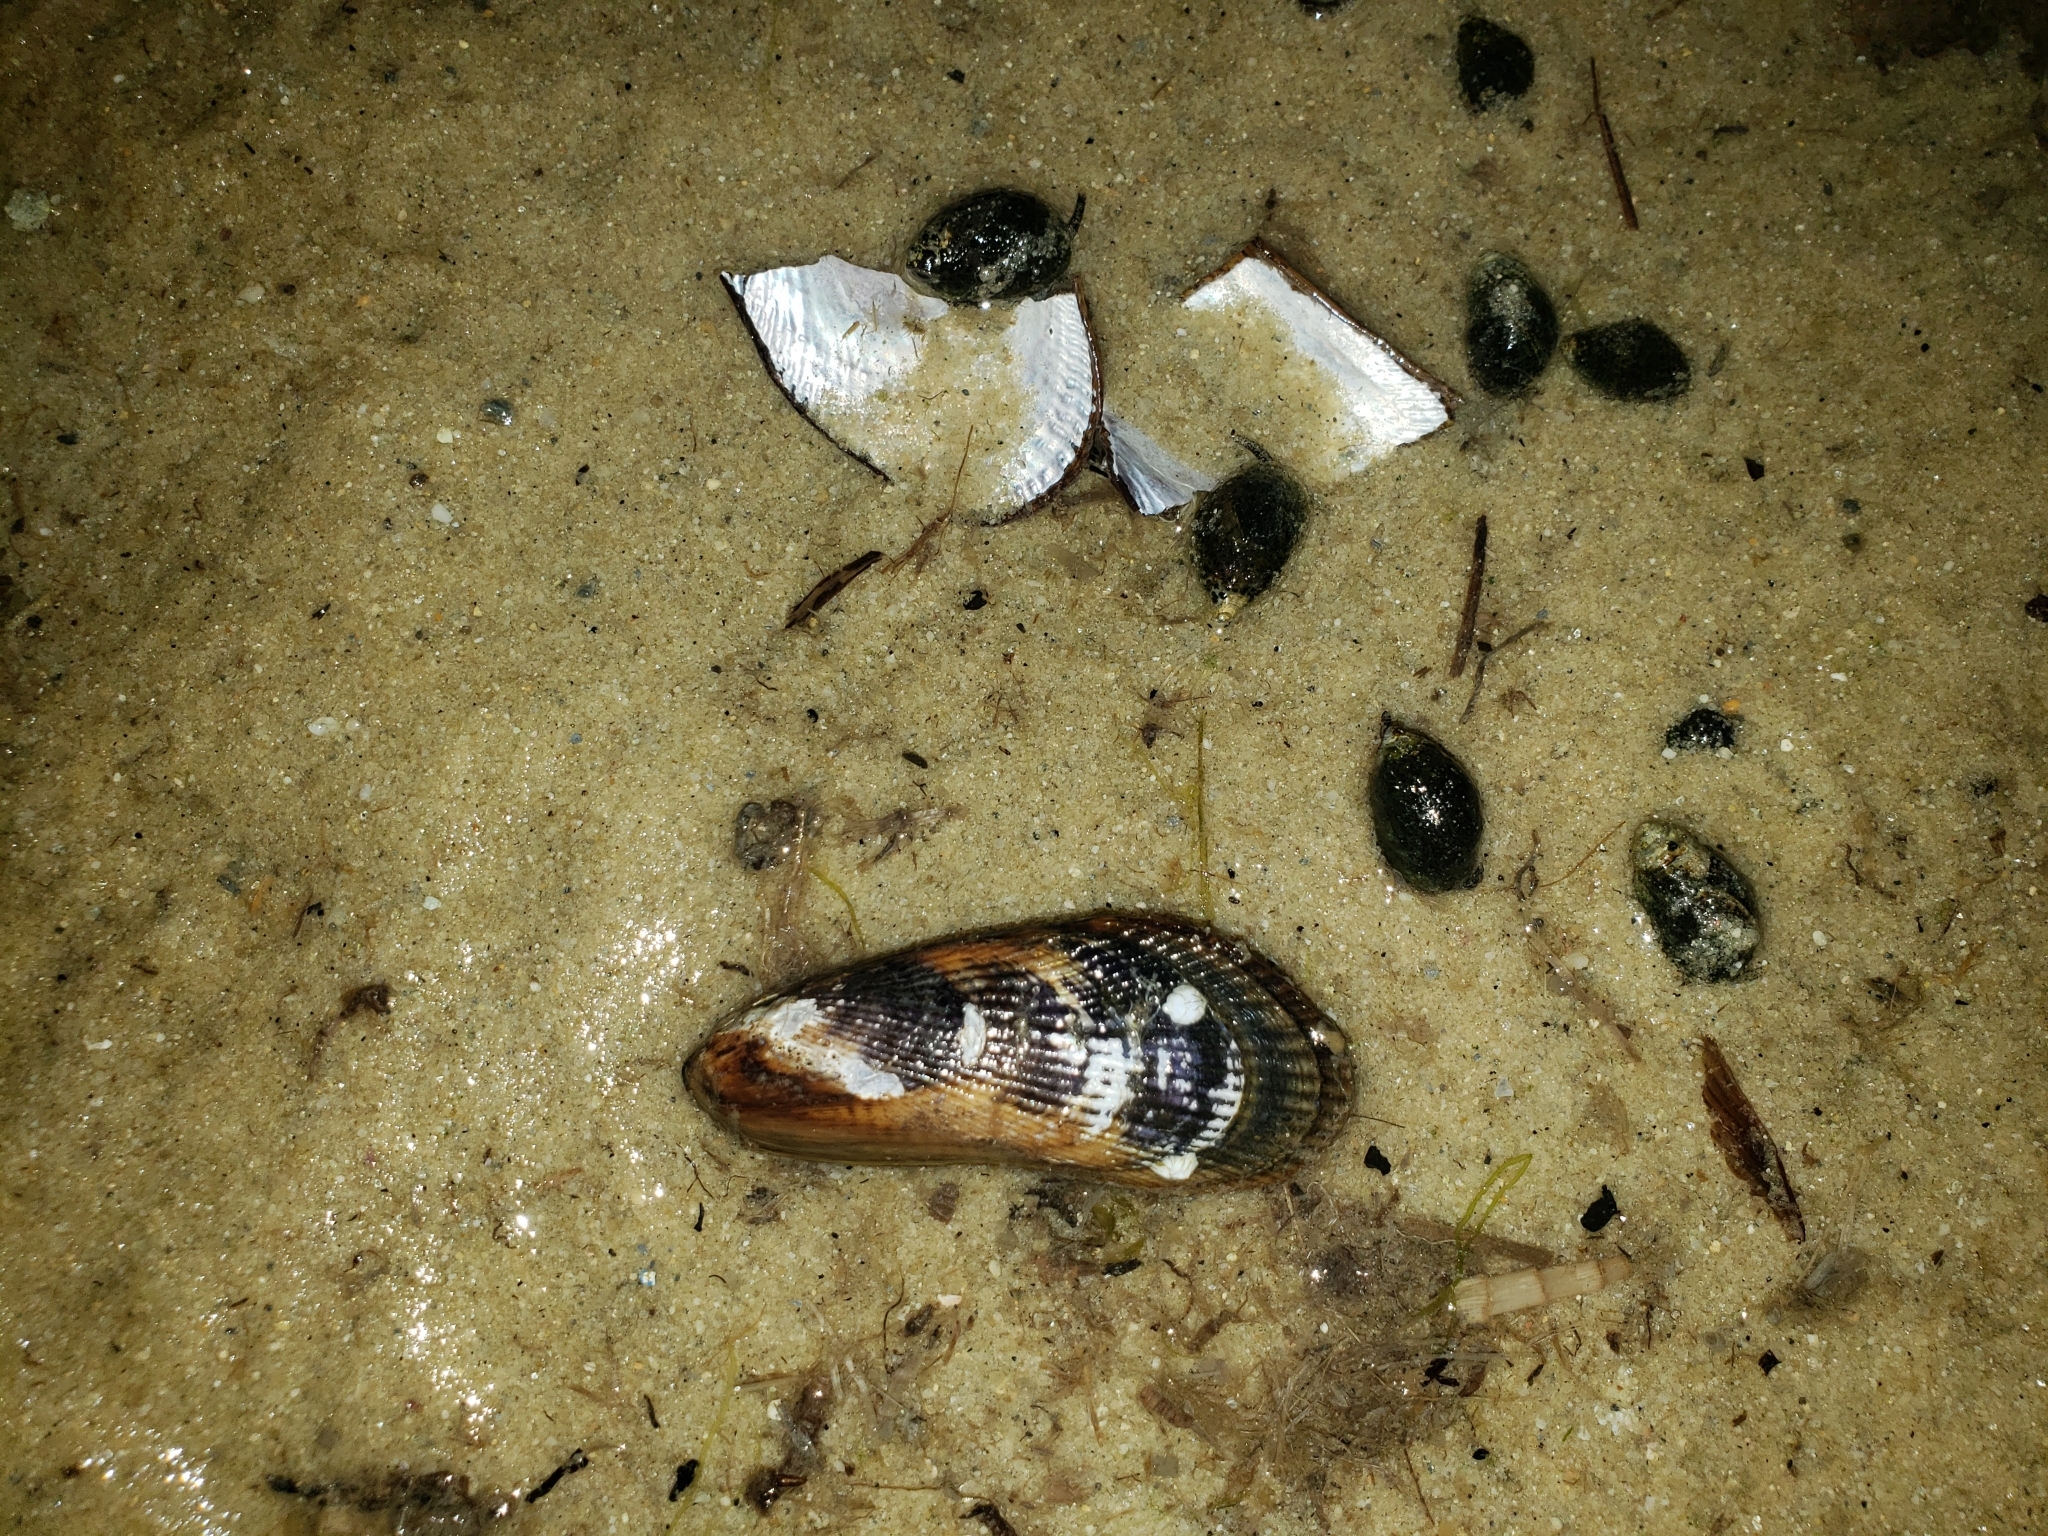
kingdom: Animalia
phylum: Mollusca
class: Bivalvia
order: Mytilida
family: Mytilidae
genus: Geukensia
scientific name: Geukensia demissa
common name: Ribbed mussel
